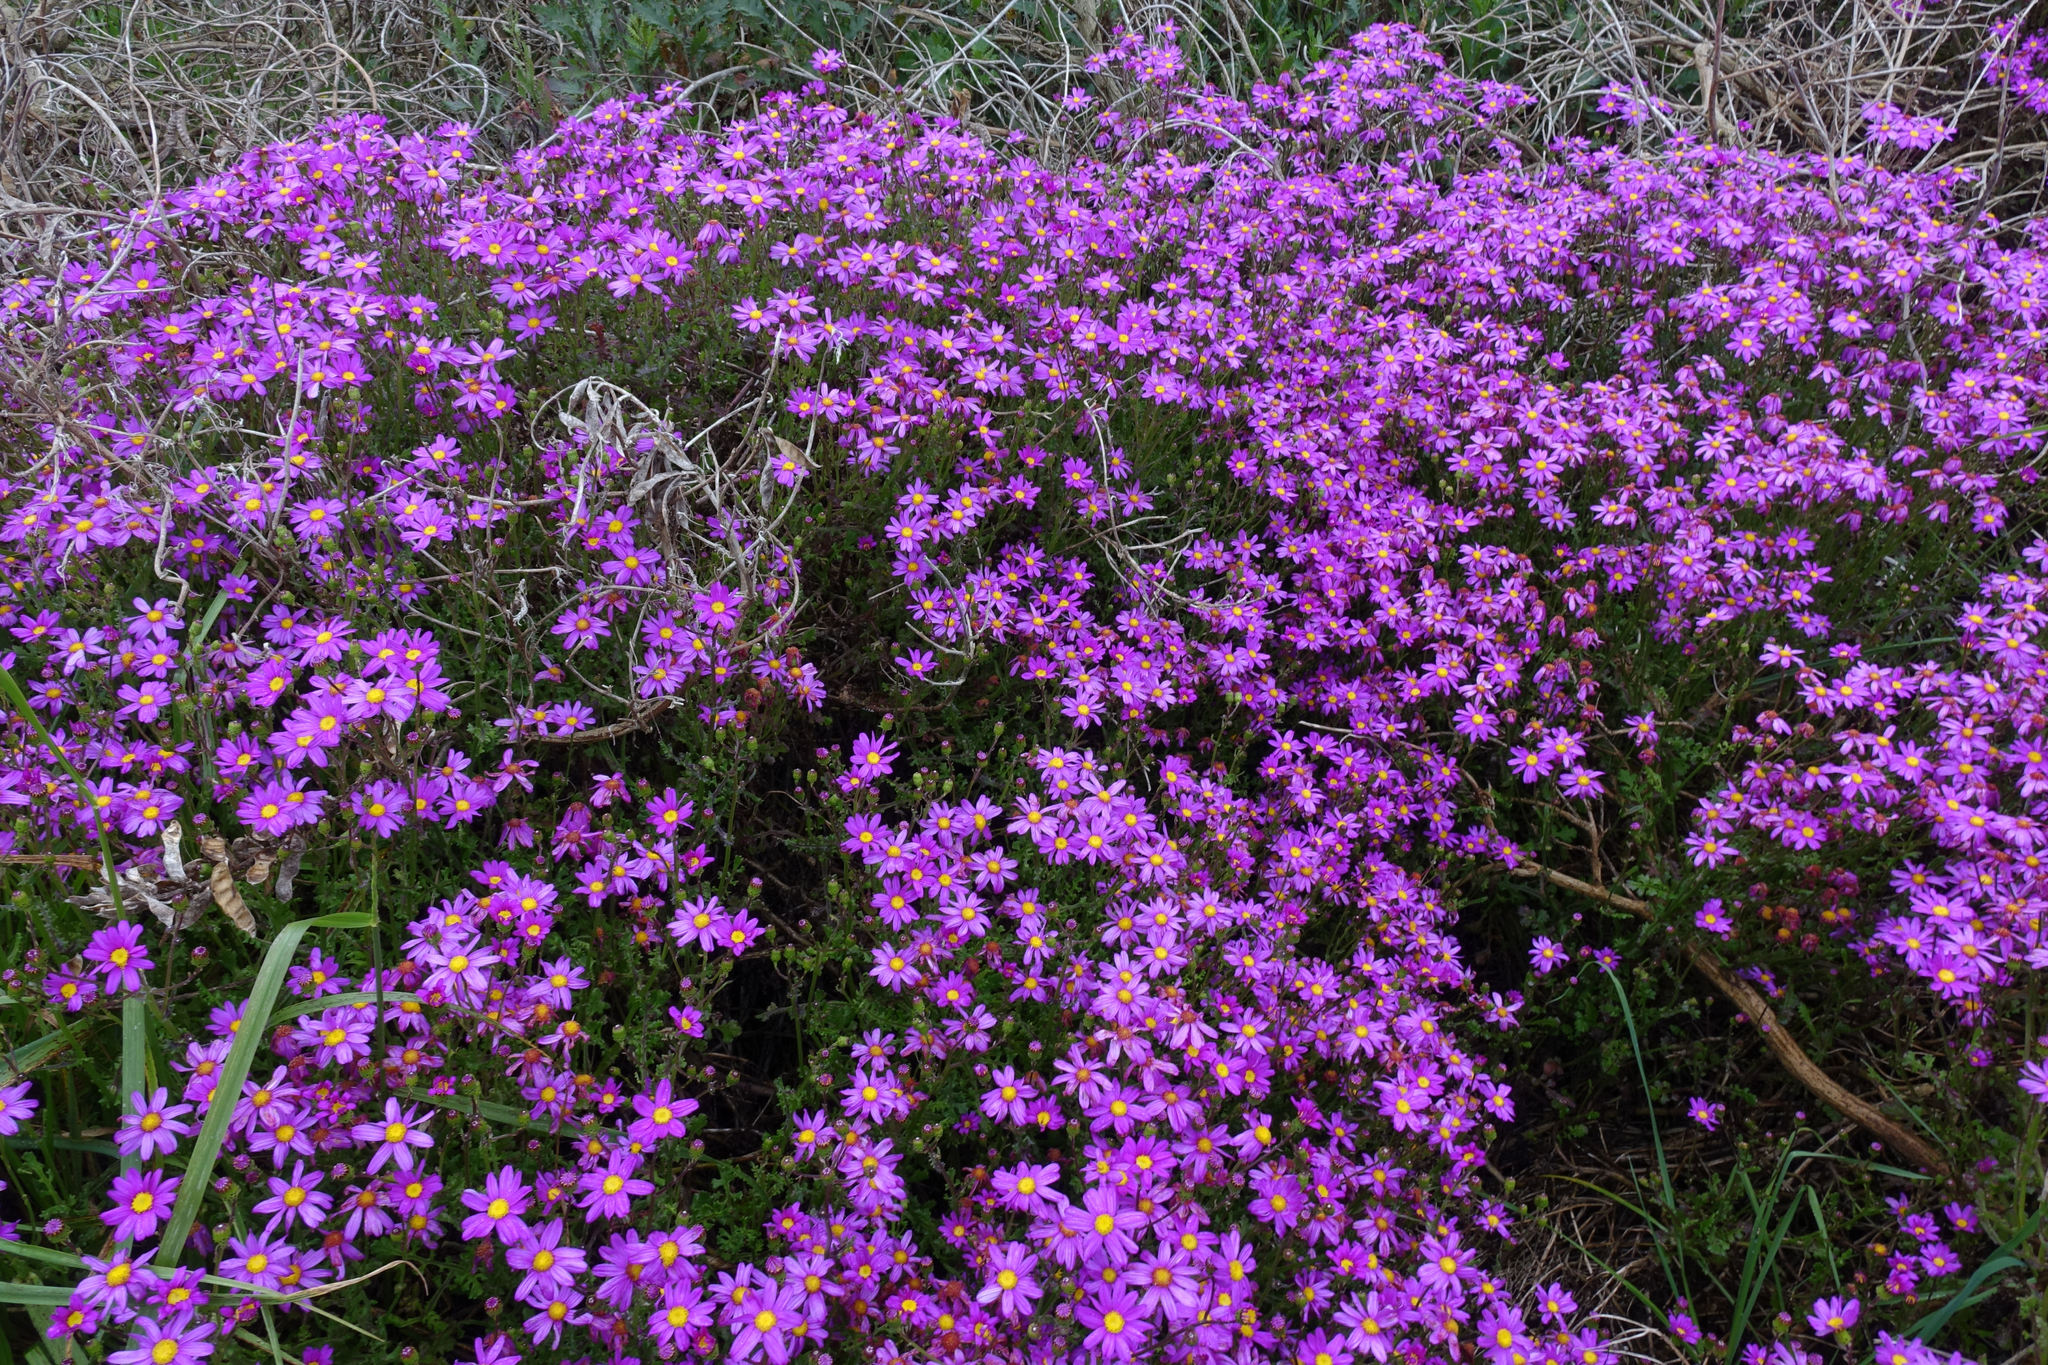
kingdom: Plantae
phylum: Tracheophyta
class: Magnoliopsida
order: Asterales
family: Asteraceae
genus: Senecio
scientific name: Senecio elegans
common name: Purple groundsel
